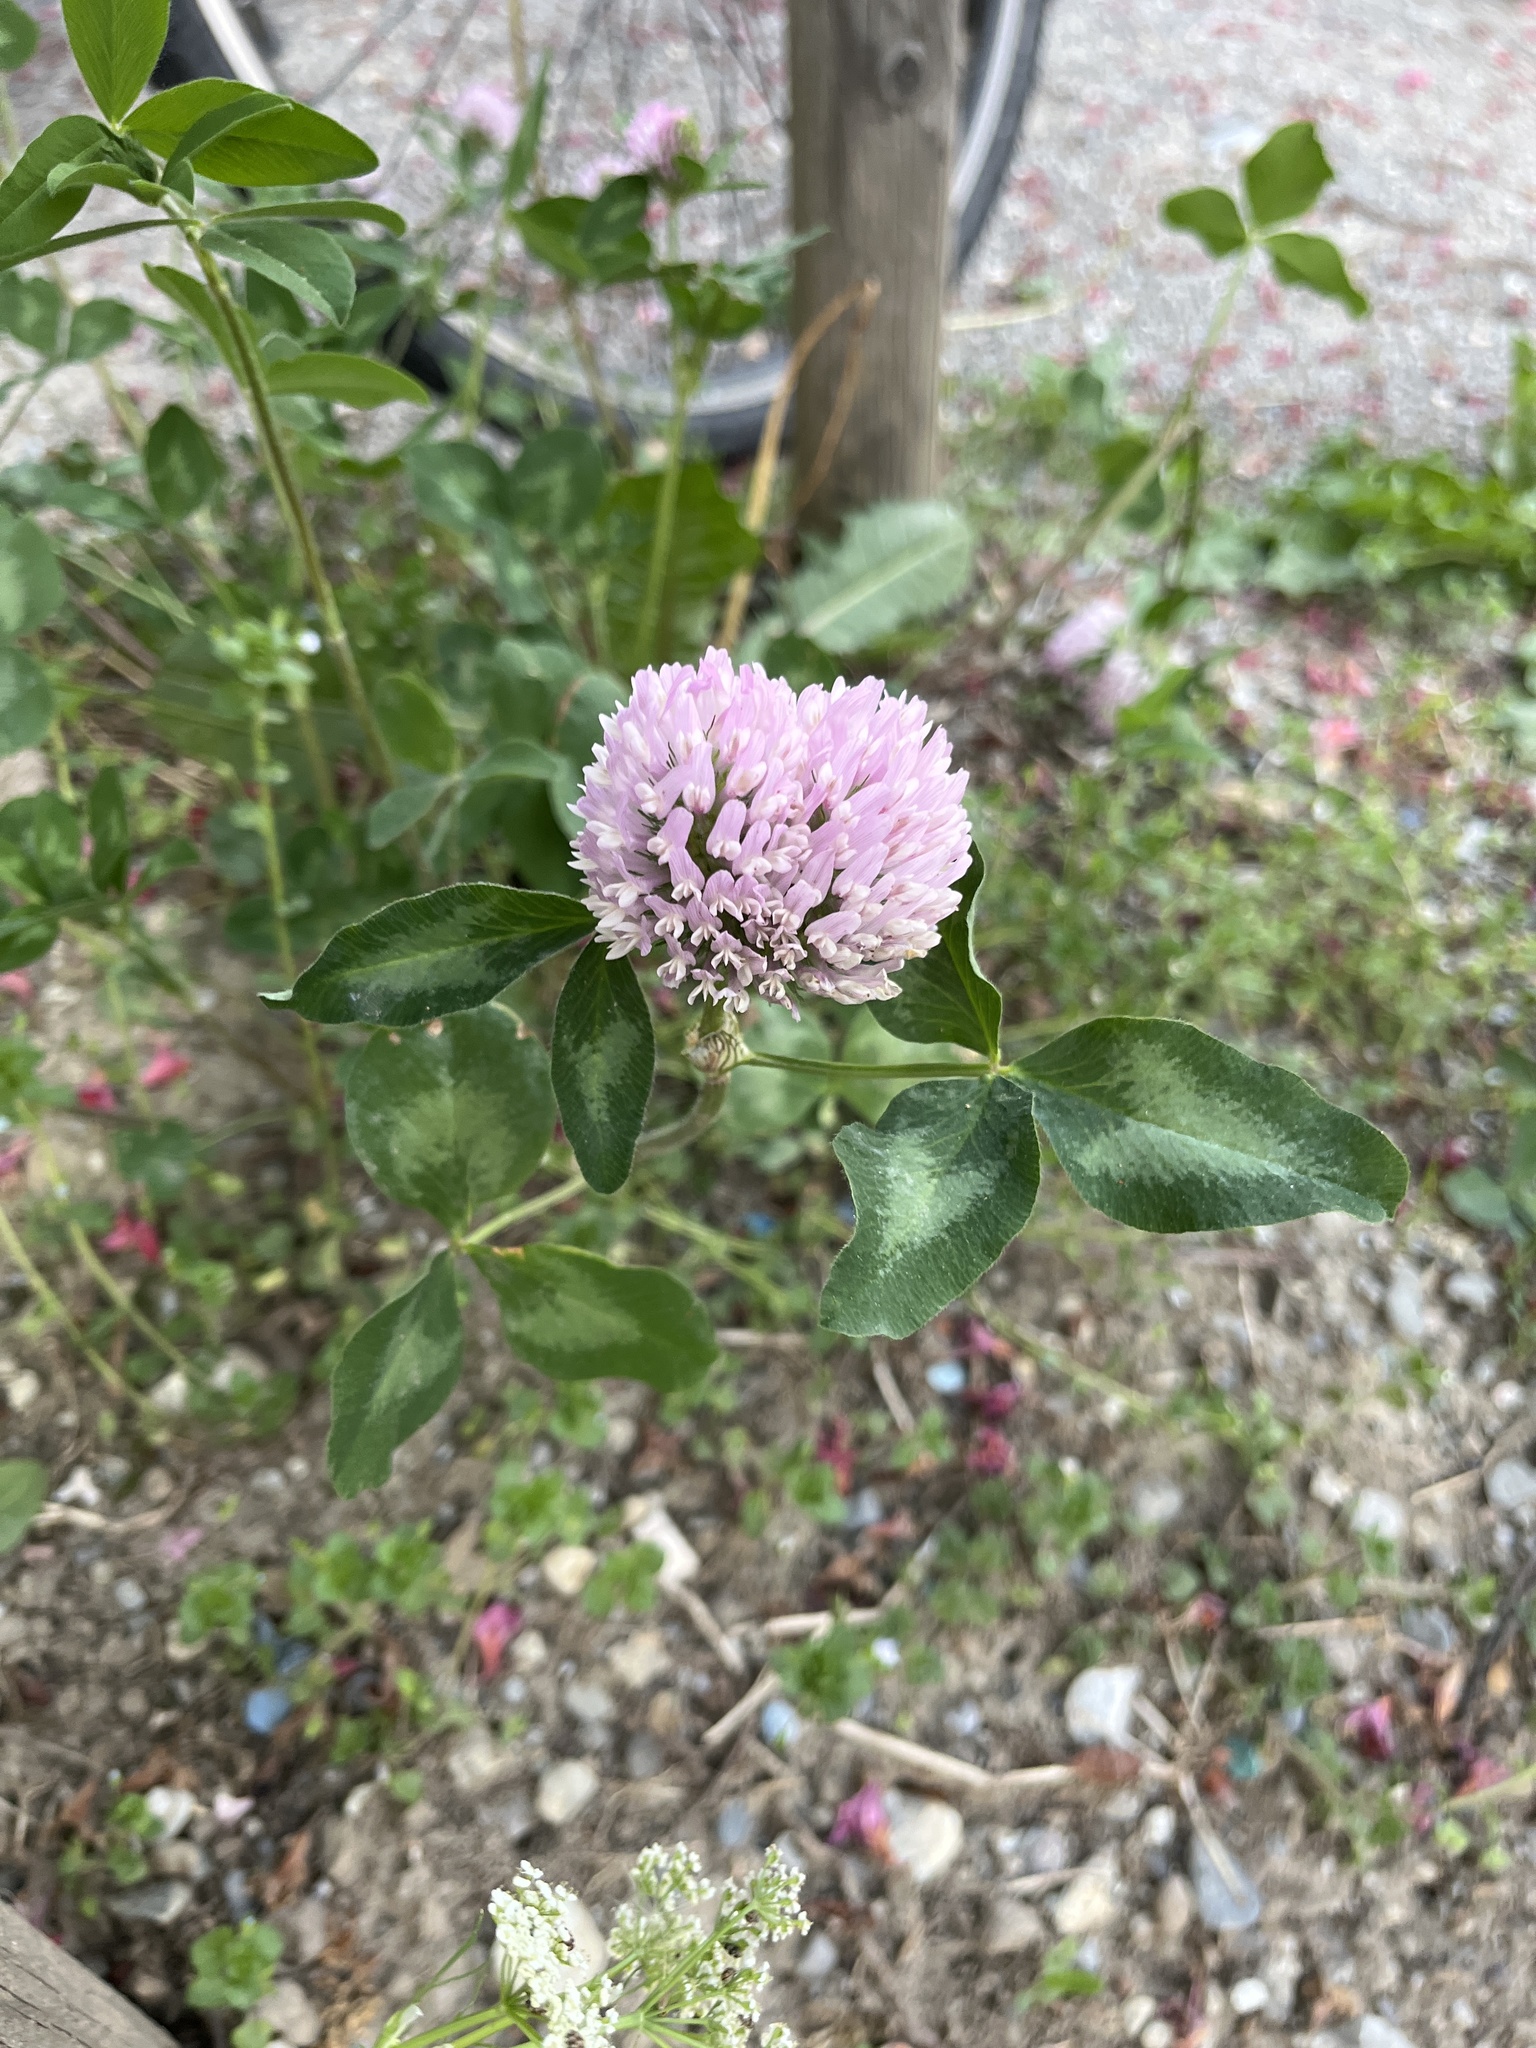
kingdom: Plantae
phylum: Tracheophyta
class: Magnoliopsida
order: Fabales
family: Fabaceae
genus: Trifolium
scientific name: Trifolium pratense
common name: Red clover
